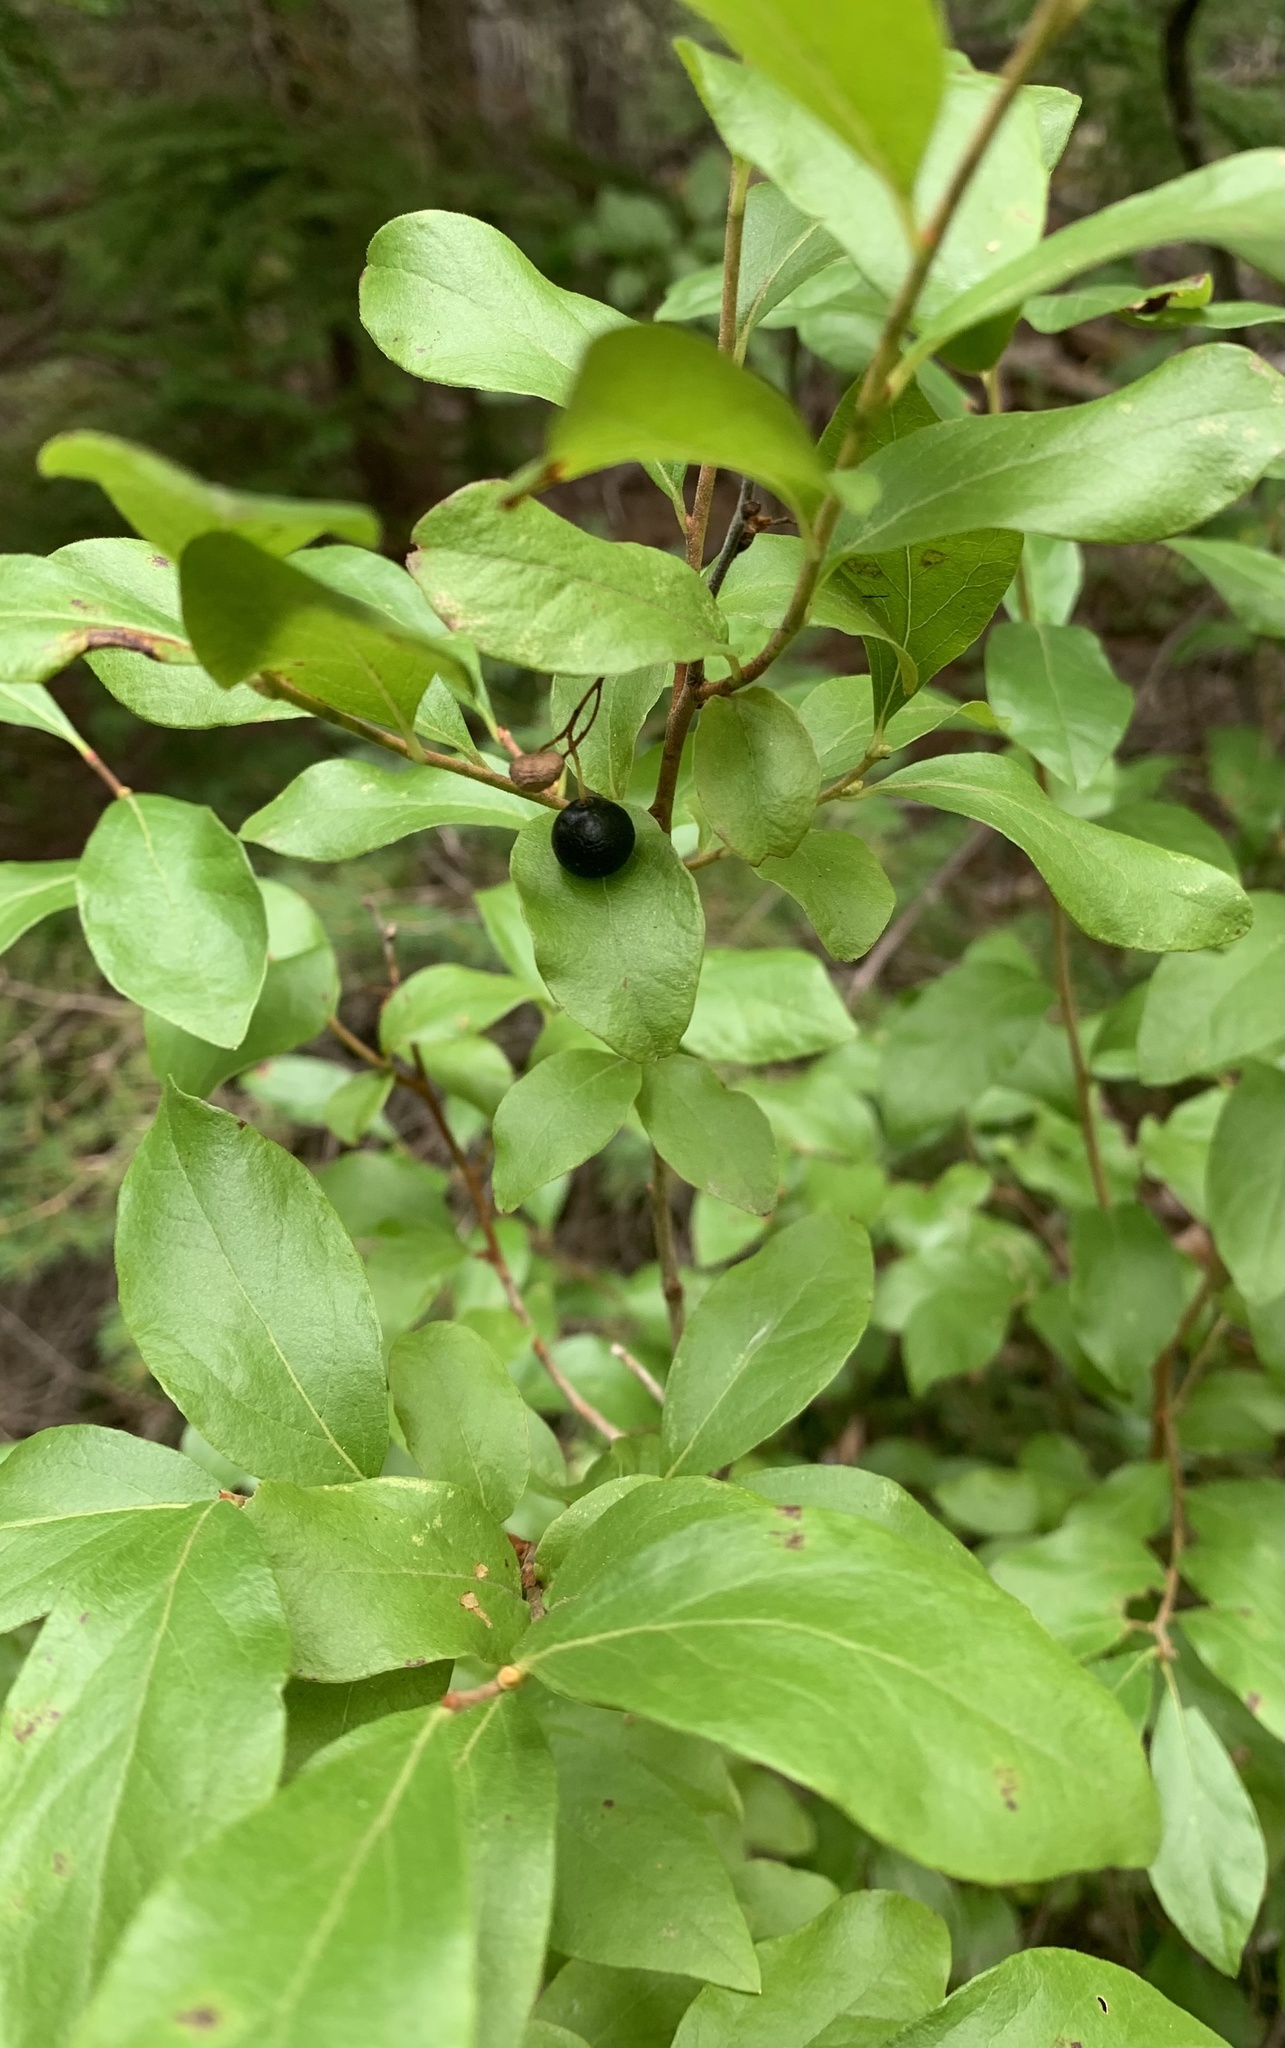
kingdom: Plantae
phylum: Tracheophyta
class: Magnoliopsida
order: Ericales
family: Ericaceae
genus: Gaylussacia
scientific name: Gaylussacia baccata
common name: Black huckleberry
